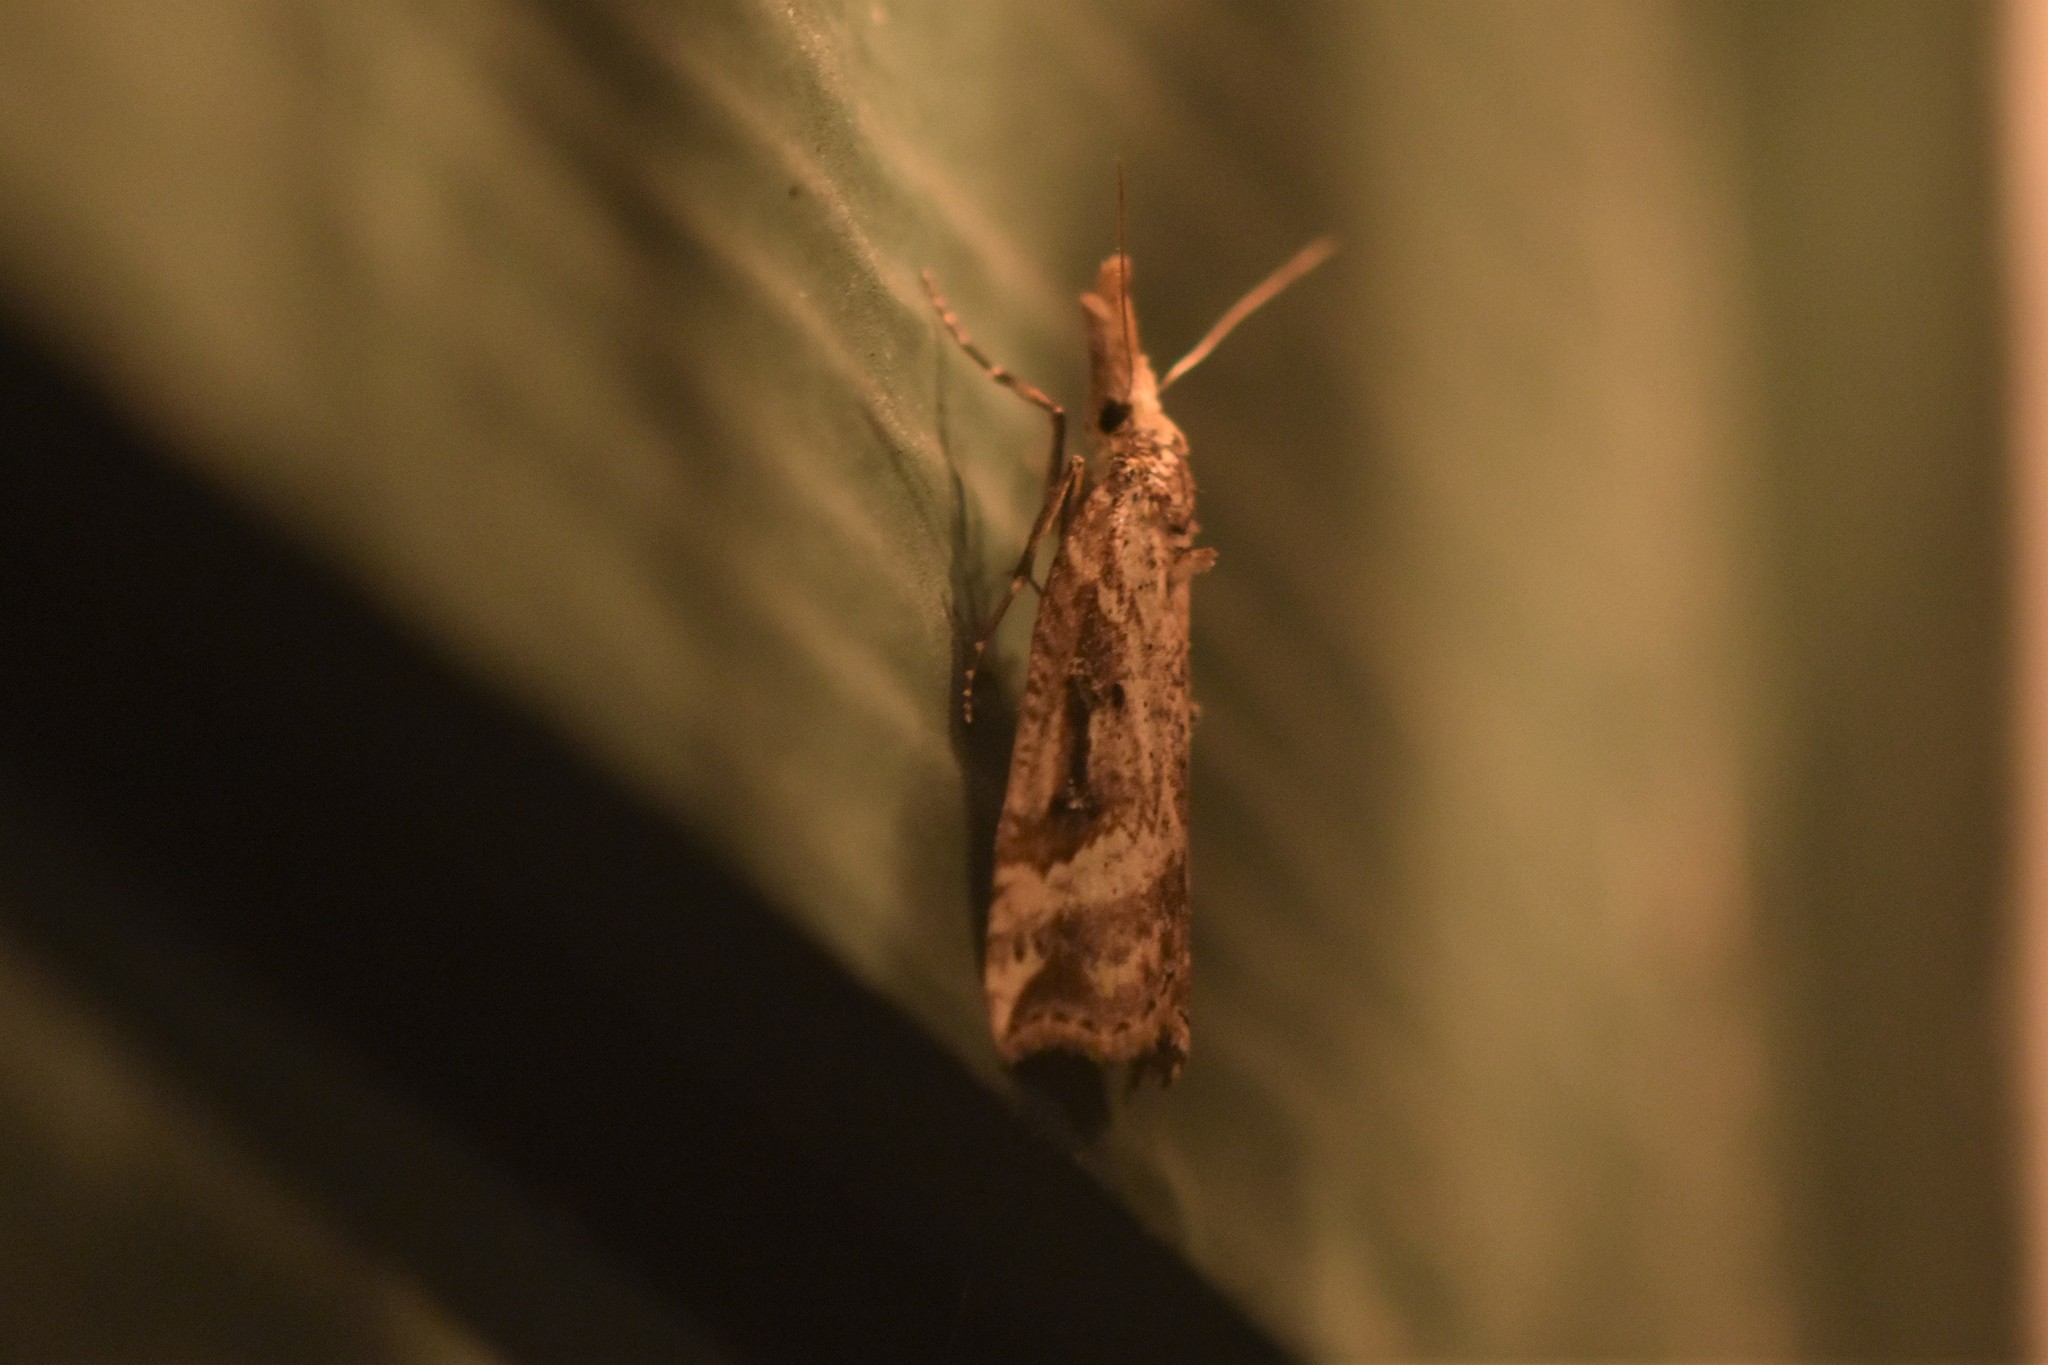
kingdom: Animalia
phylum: Arthropoda
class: Insecta
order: Lepidoptera
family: Erebidae
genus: Hypena
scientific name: Hypena californica
